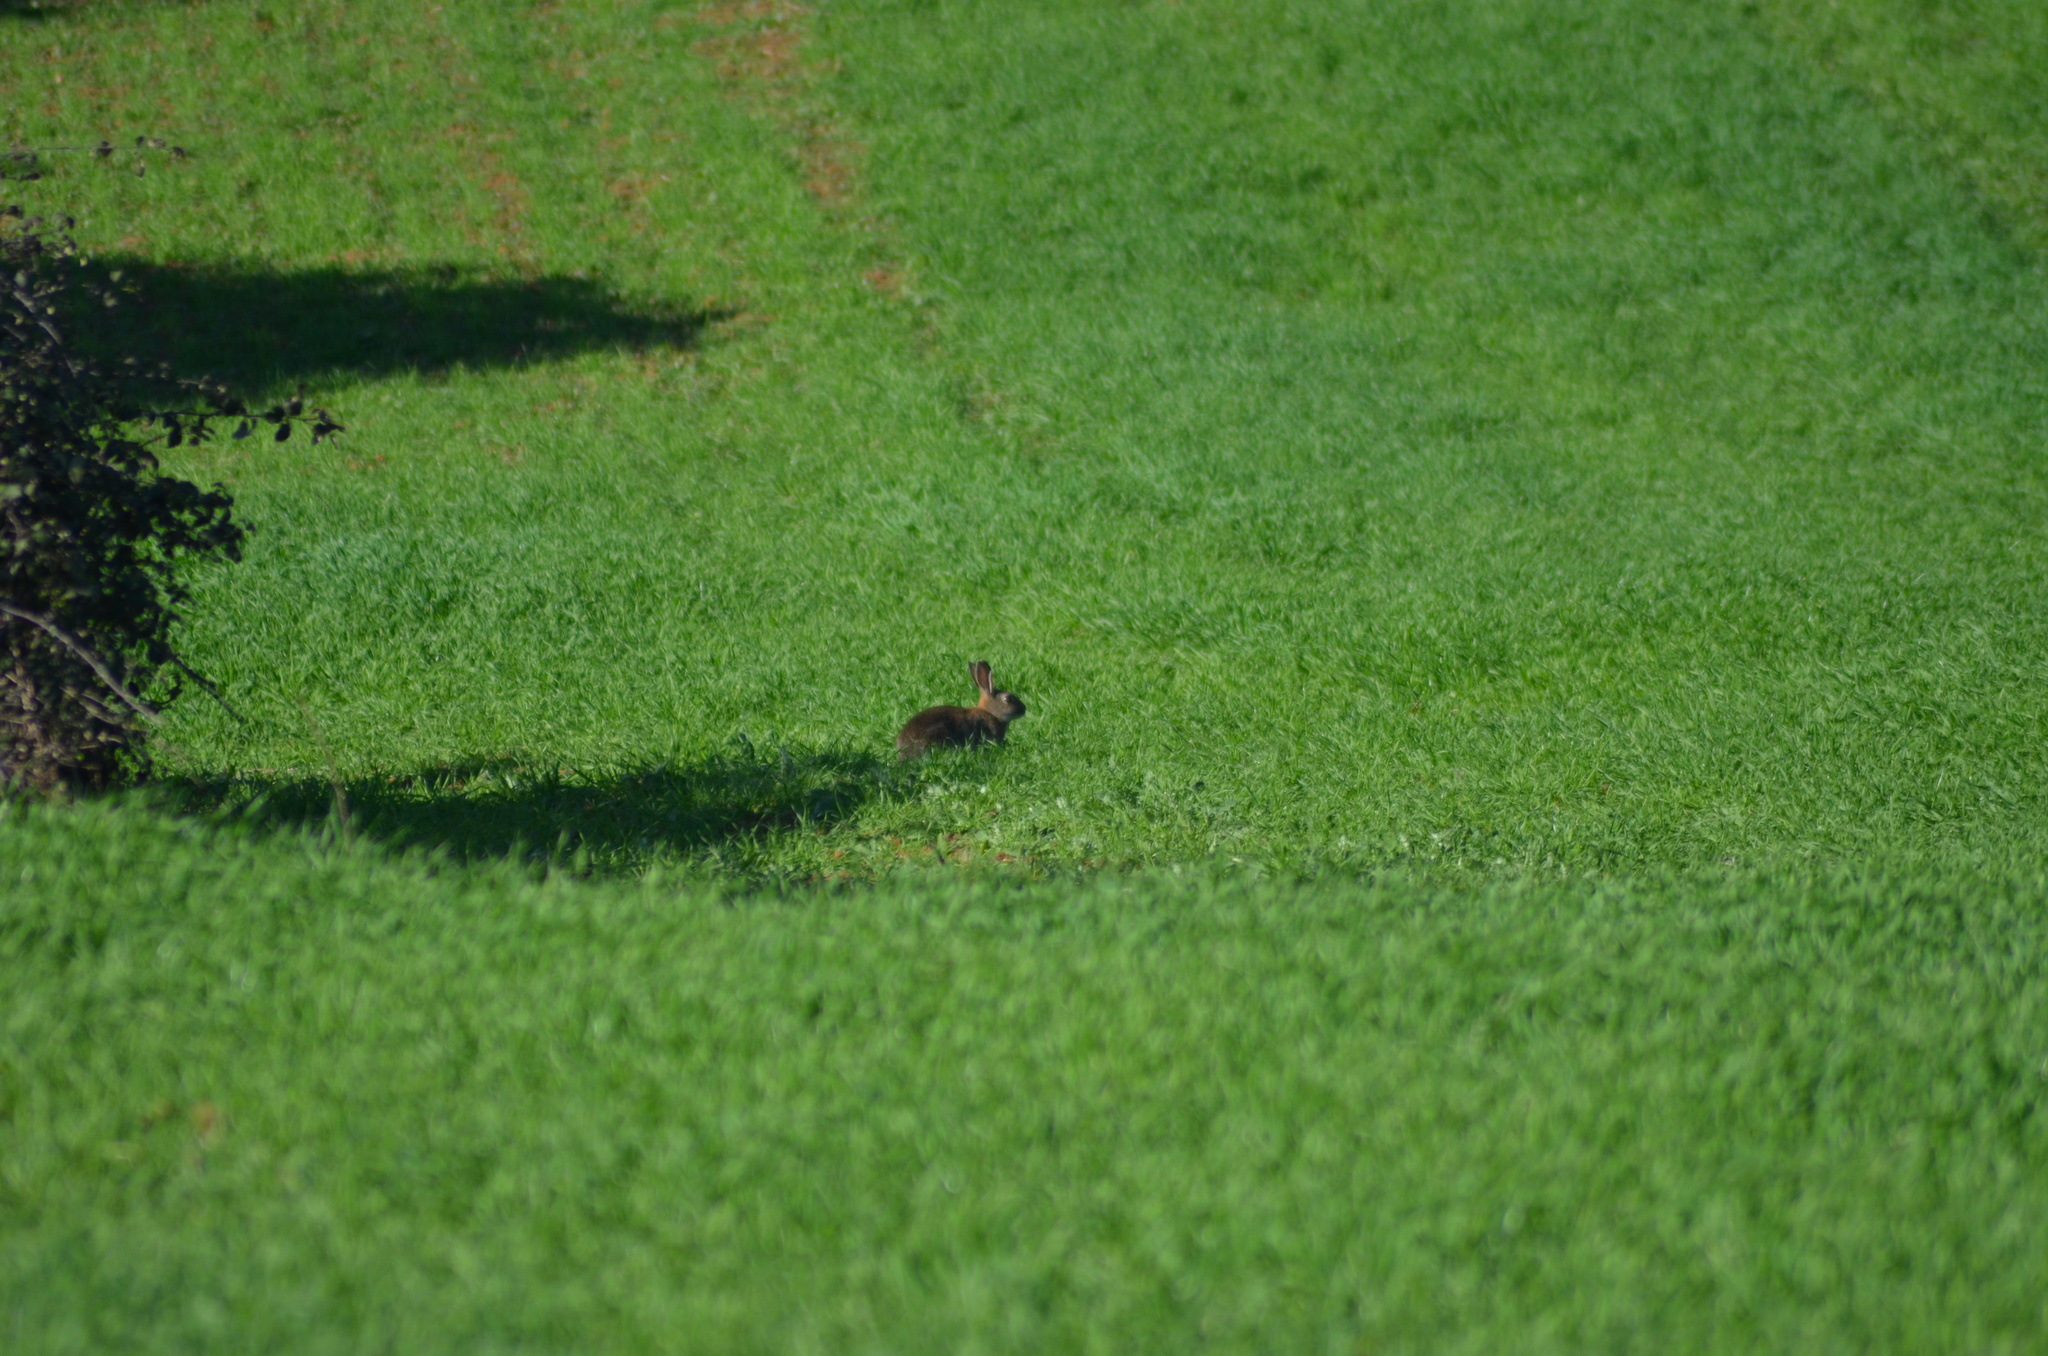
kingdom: Animalia
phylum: Chordata
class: Mammalia
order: Lagomorpha
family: Leporidae
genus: Oryctolagus
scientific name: Oryctolagus cuniculus
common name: European rabbit
